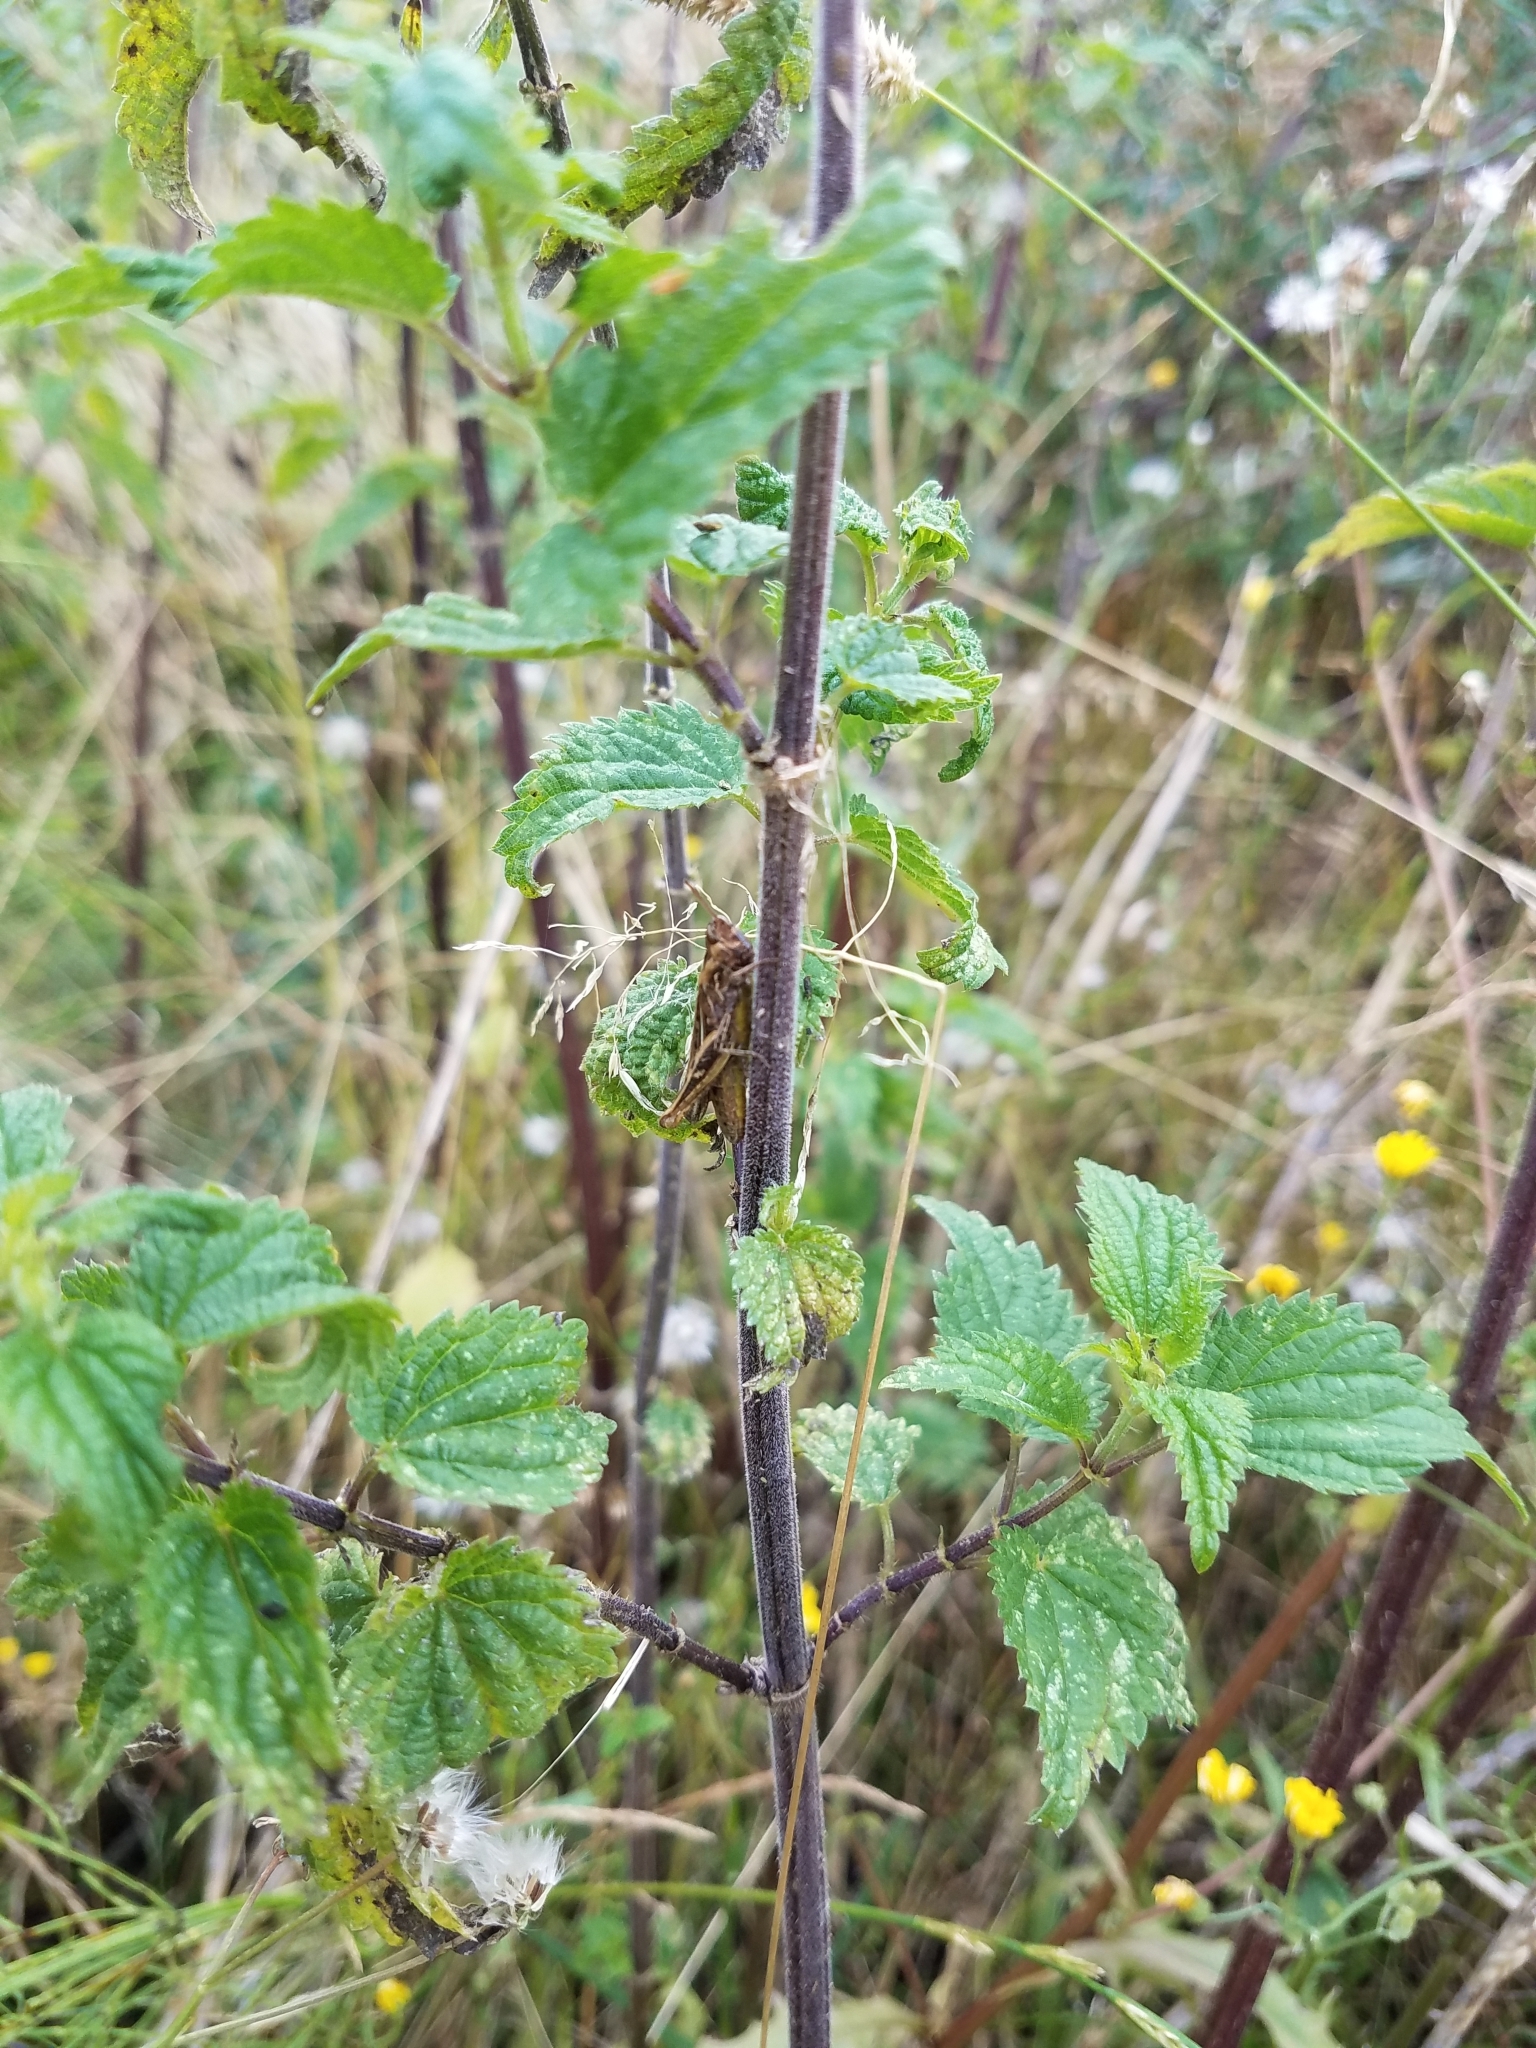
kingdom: Plantae
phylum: Tracheophyta
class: Magnoliopsida
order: Rosales
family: Urticaceae
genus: Urtica
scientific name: Urtica dioica
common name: Common nettle
